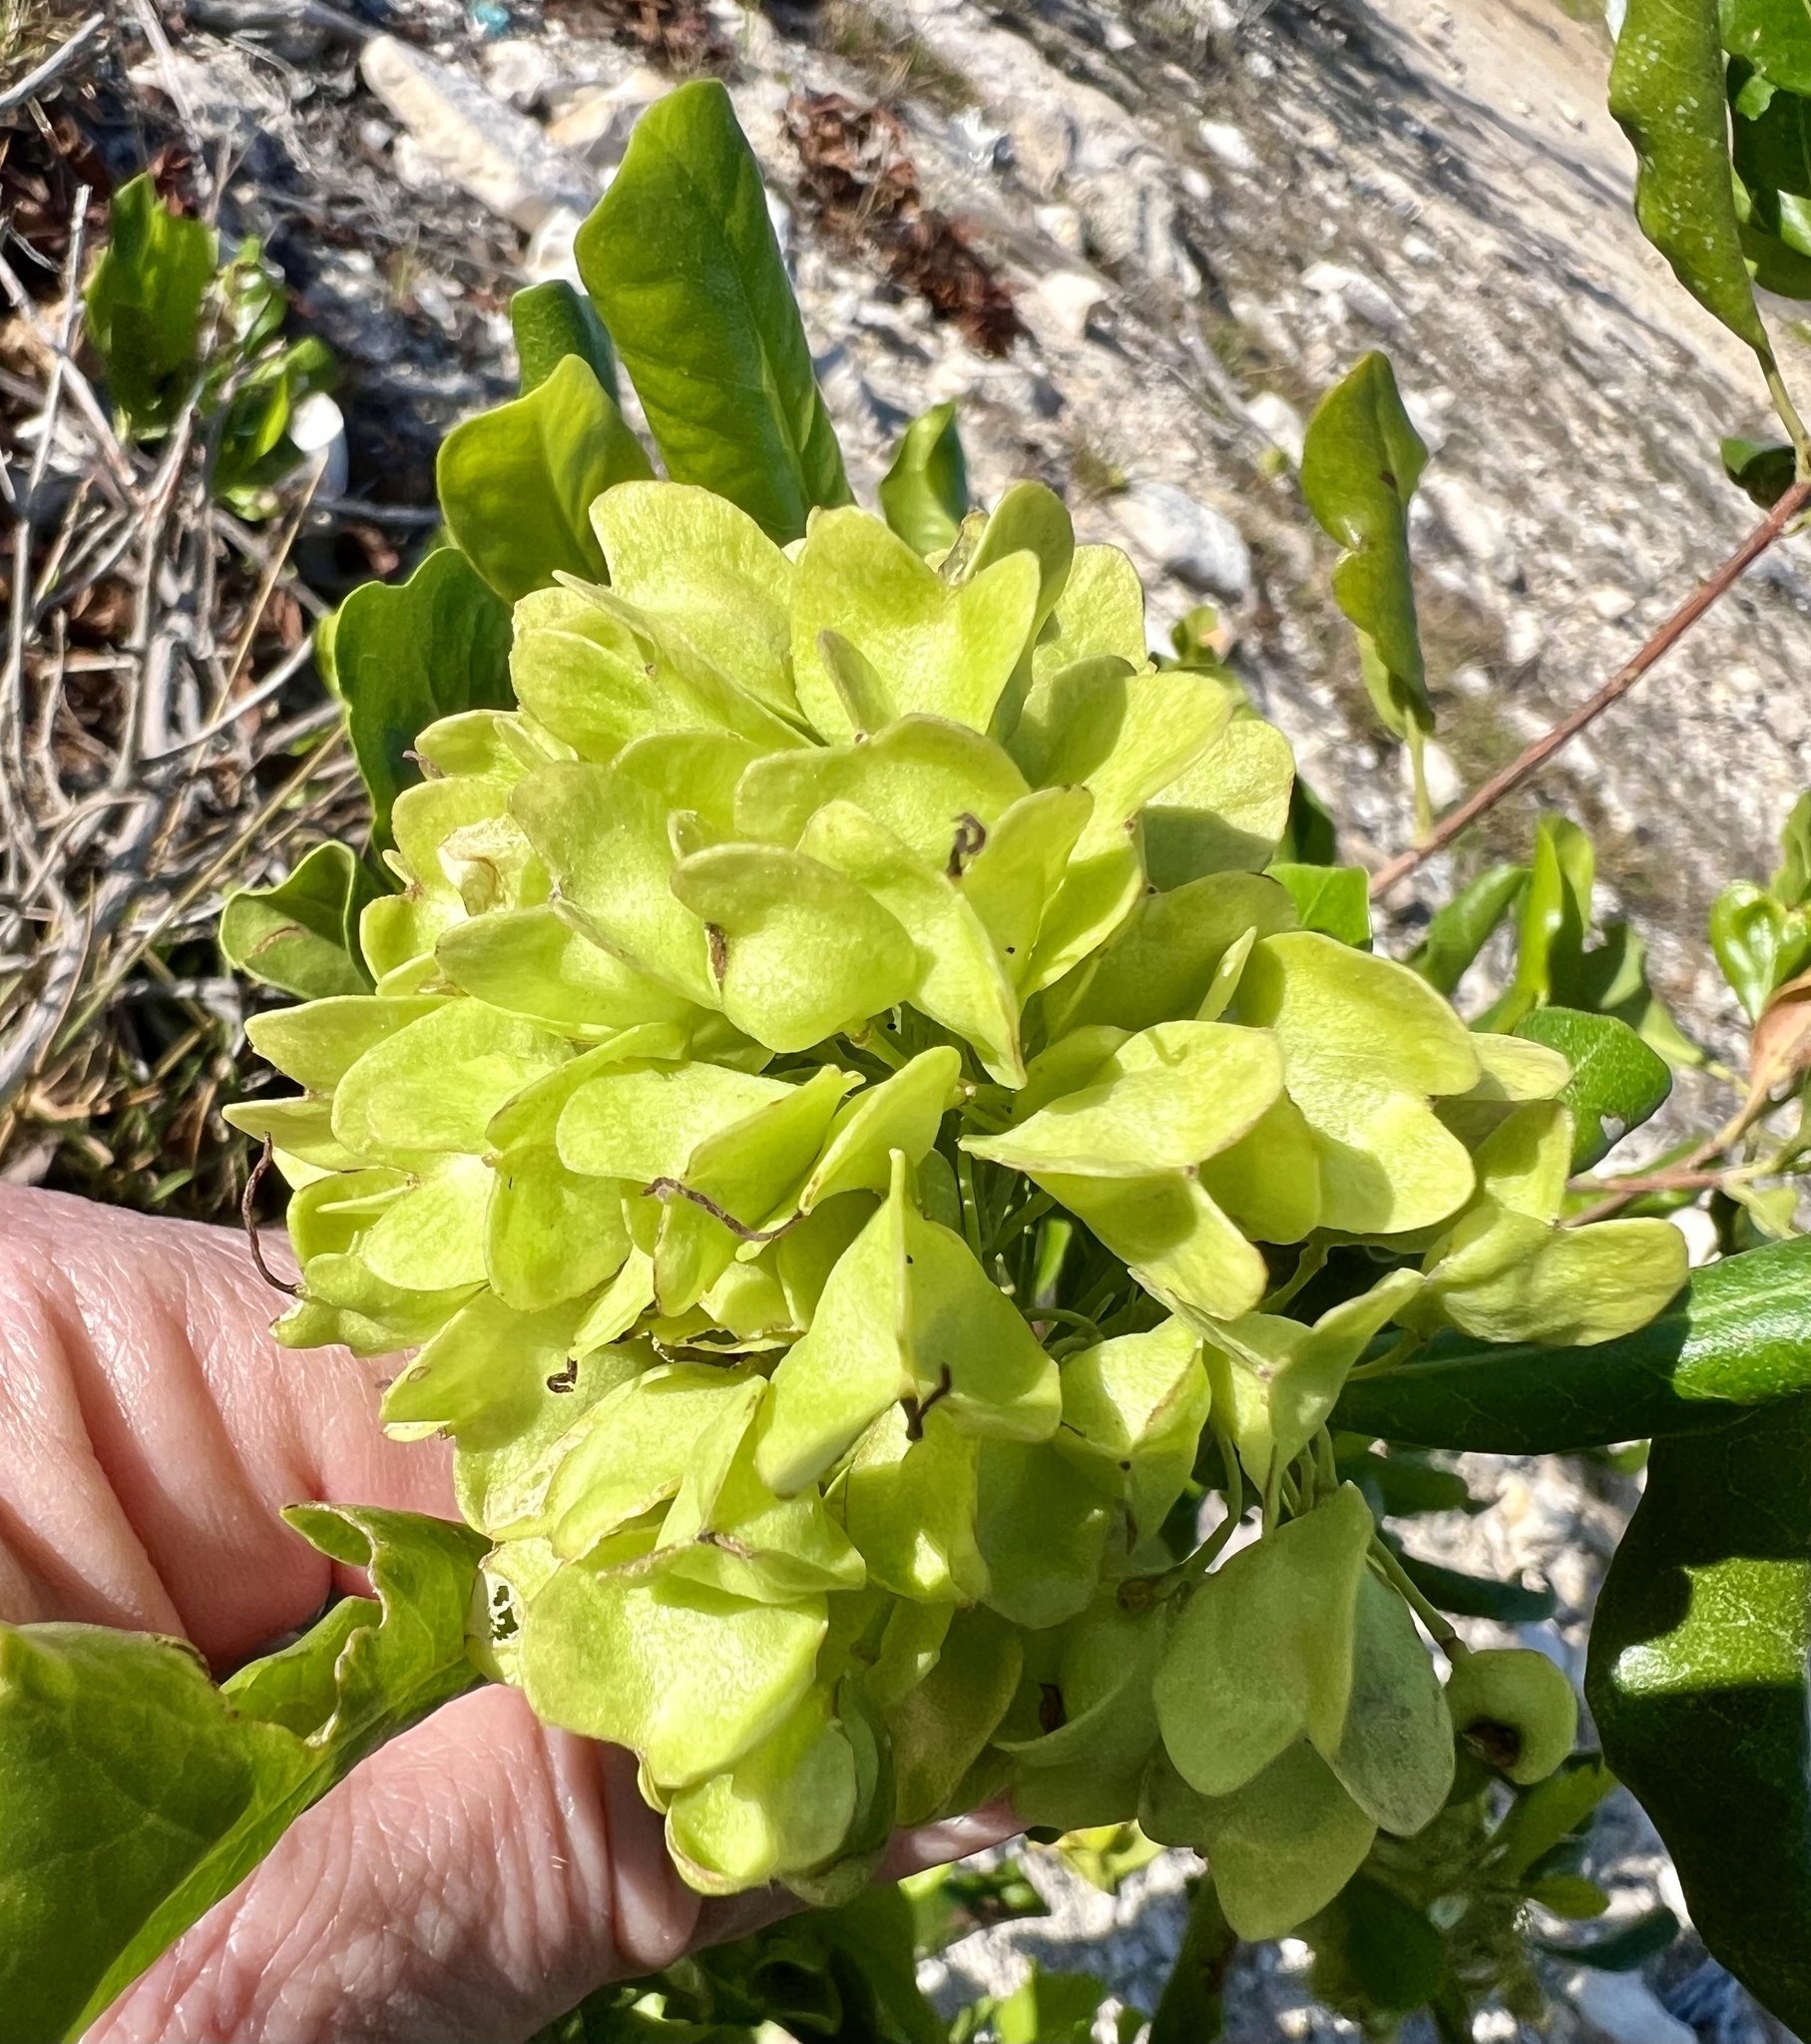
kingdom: Plantae
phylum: Tracheophyta
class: Magnoliopsida
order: Sapindales
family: Sapindaceae
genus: Dodonaea
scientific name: Dodonaea viscosa
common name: Hopbush
